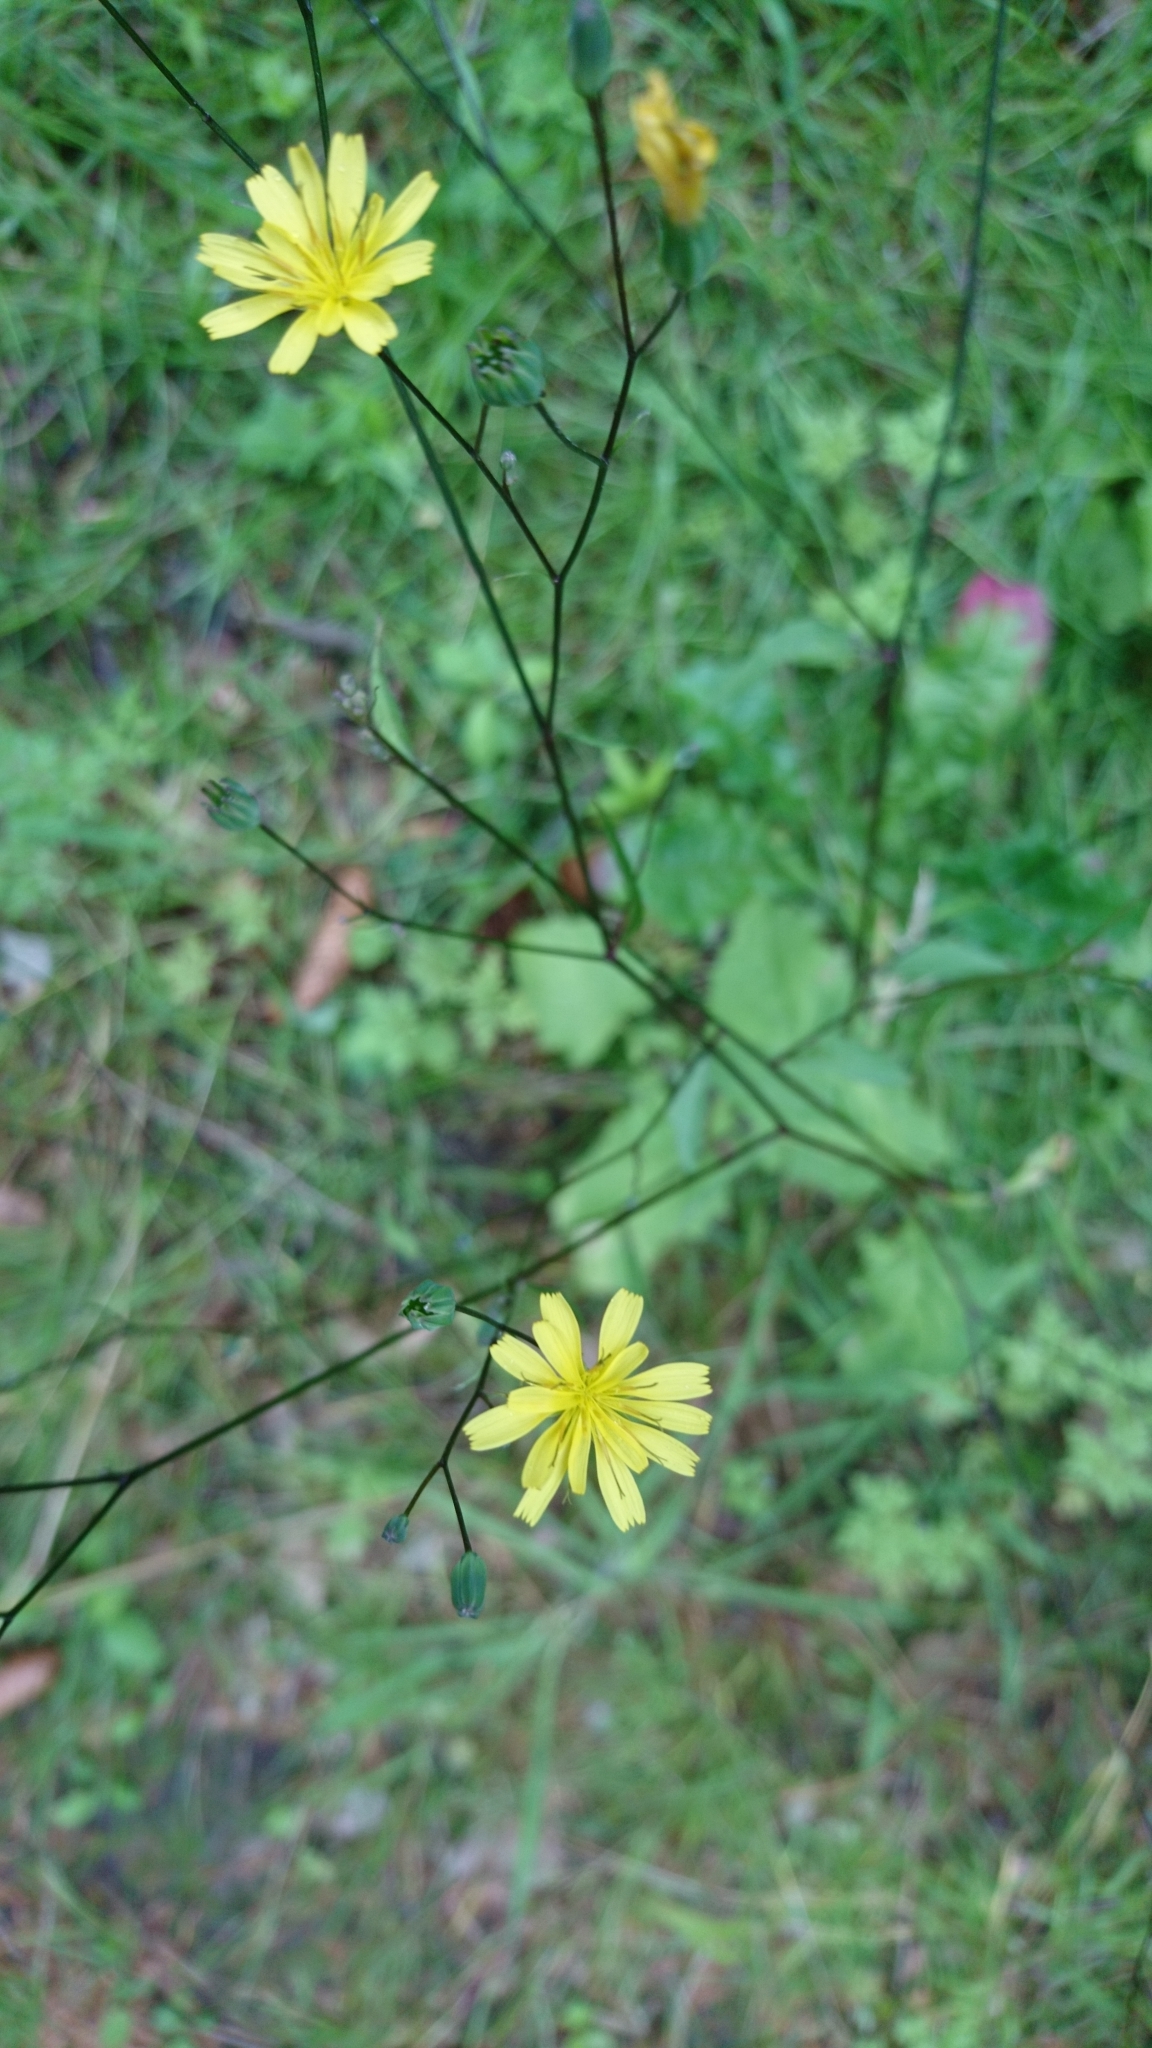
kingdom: Plantae
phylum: Tracheophyta
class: Magnoliopsida
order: Asterales
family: Asteraceae
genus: Lapsana
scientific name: Lapsana communis
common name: Nipplewort
